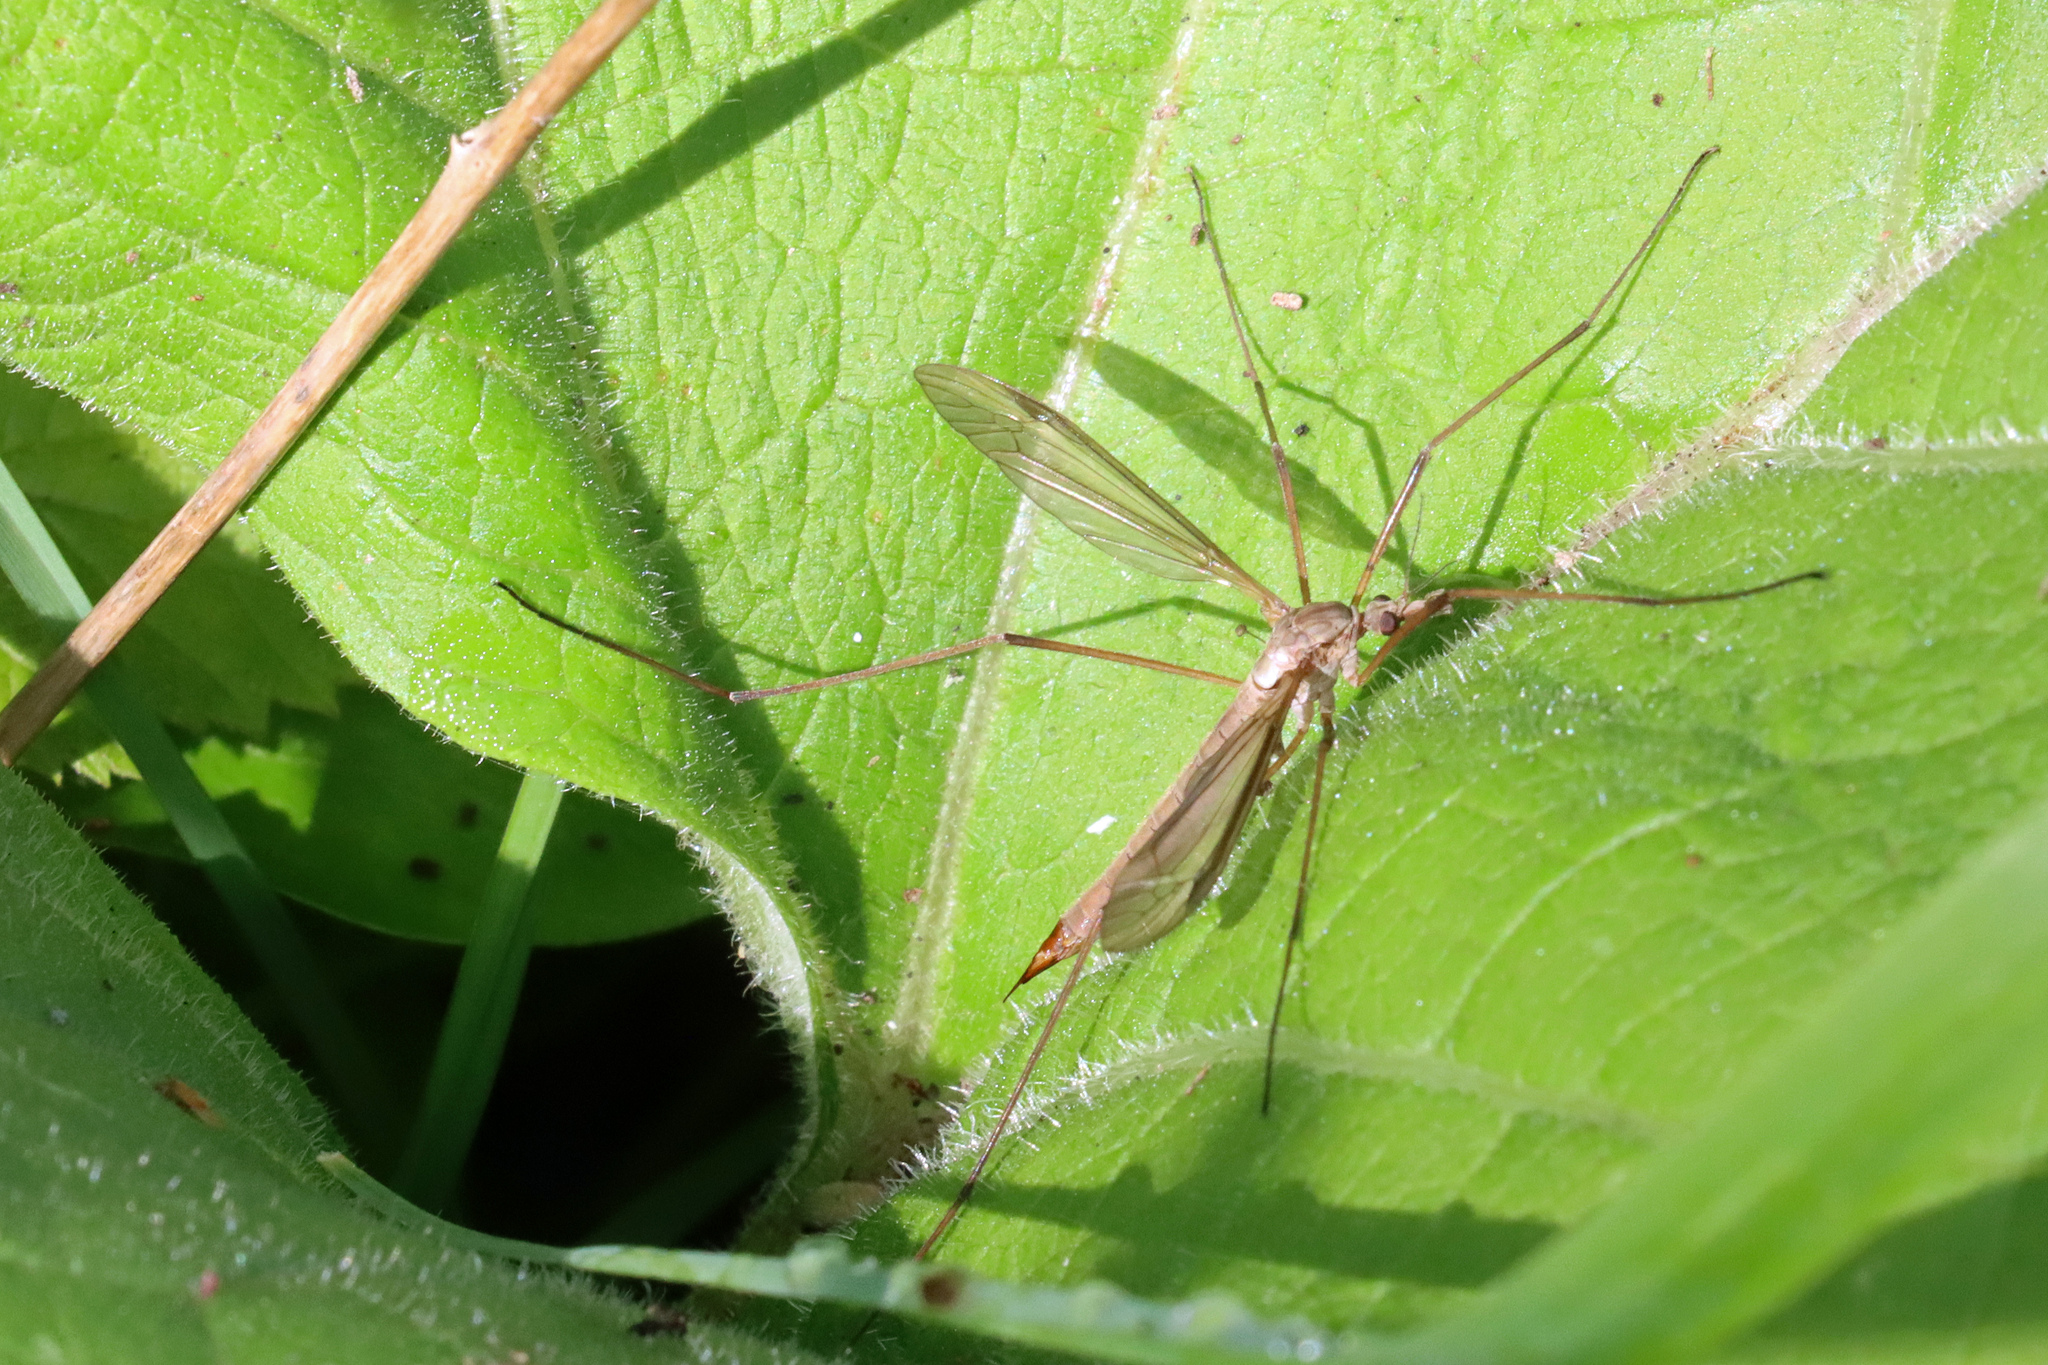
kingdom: Animalia
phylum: Arthropoda
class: Insecta
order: Diptera
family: Tipulidae
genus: Tipula
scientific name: Tipula paludosa
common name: European cranefly
